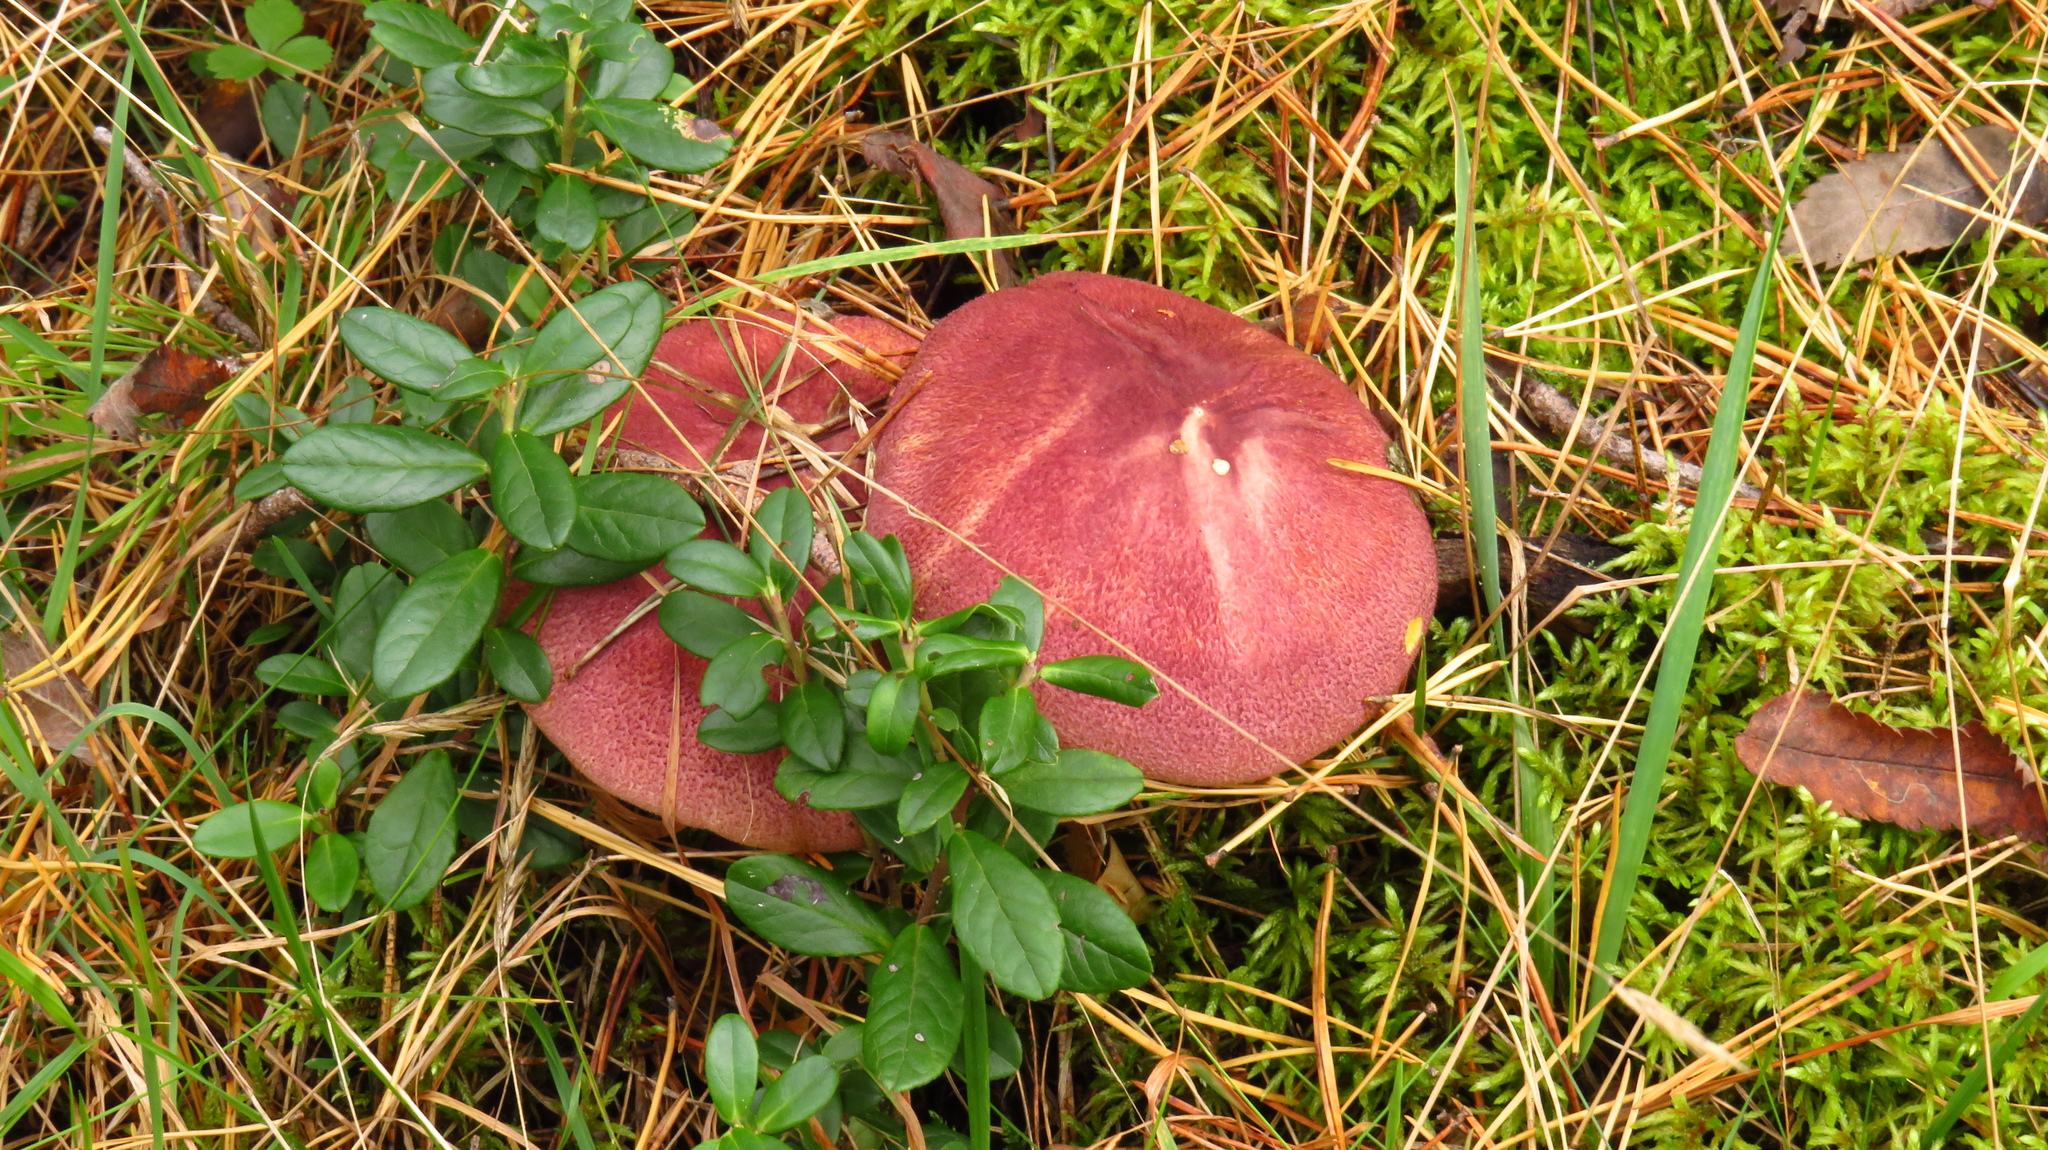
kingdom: Fungi
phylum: Basidiomycota
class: Agaricomycetes
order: Agaricales
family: Tricholomataceae
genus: Tricholomopsis
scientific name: Tricholomopsis rutilans
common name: Plums and custard
